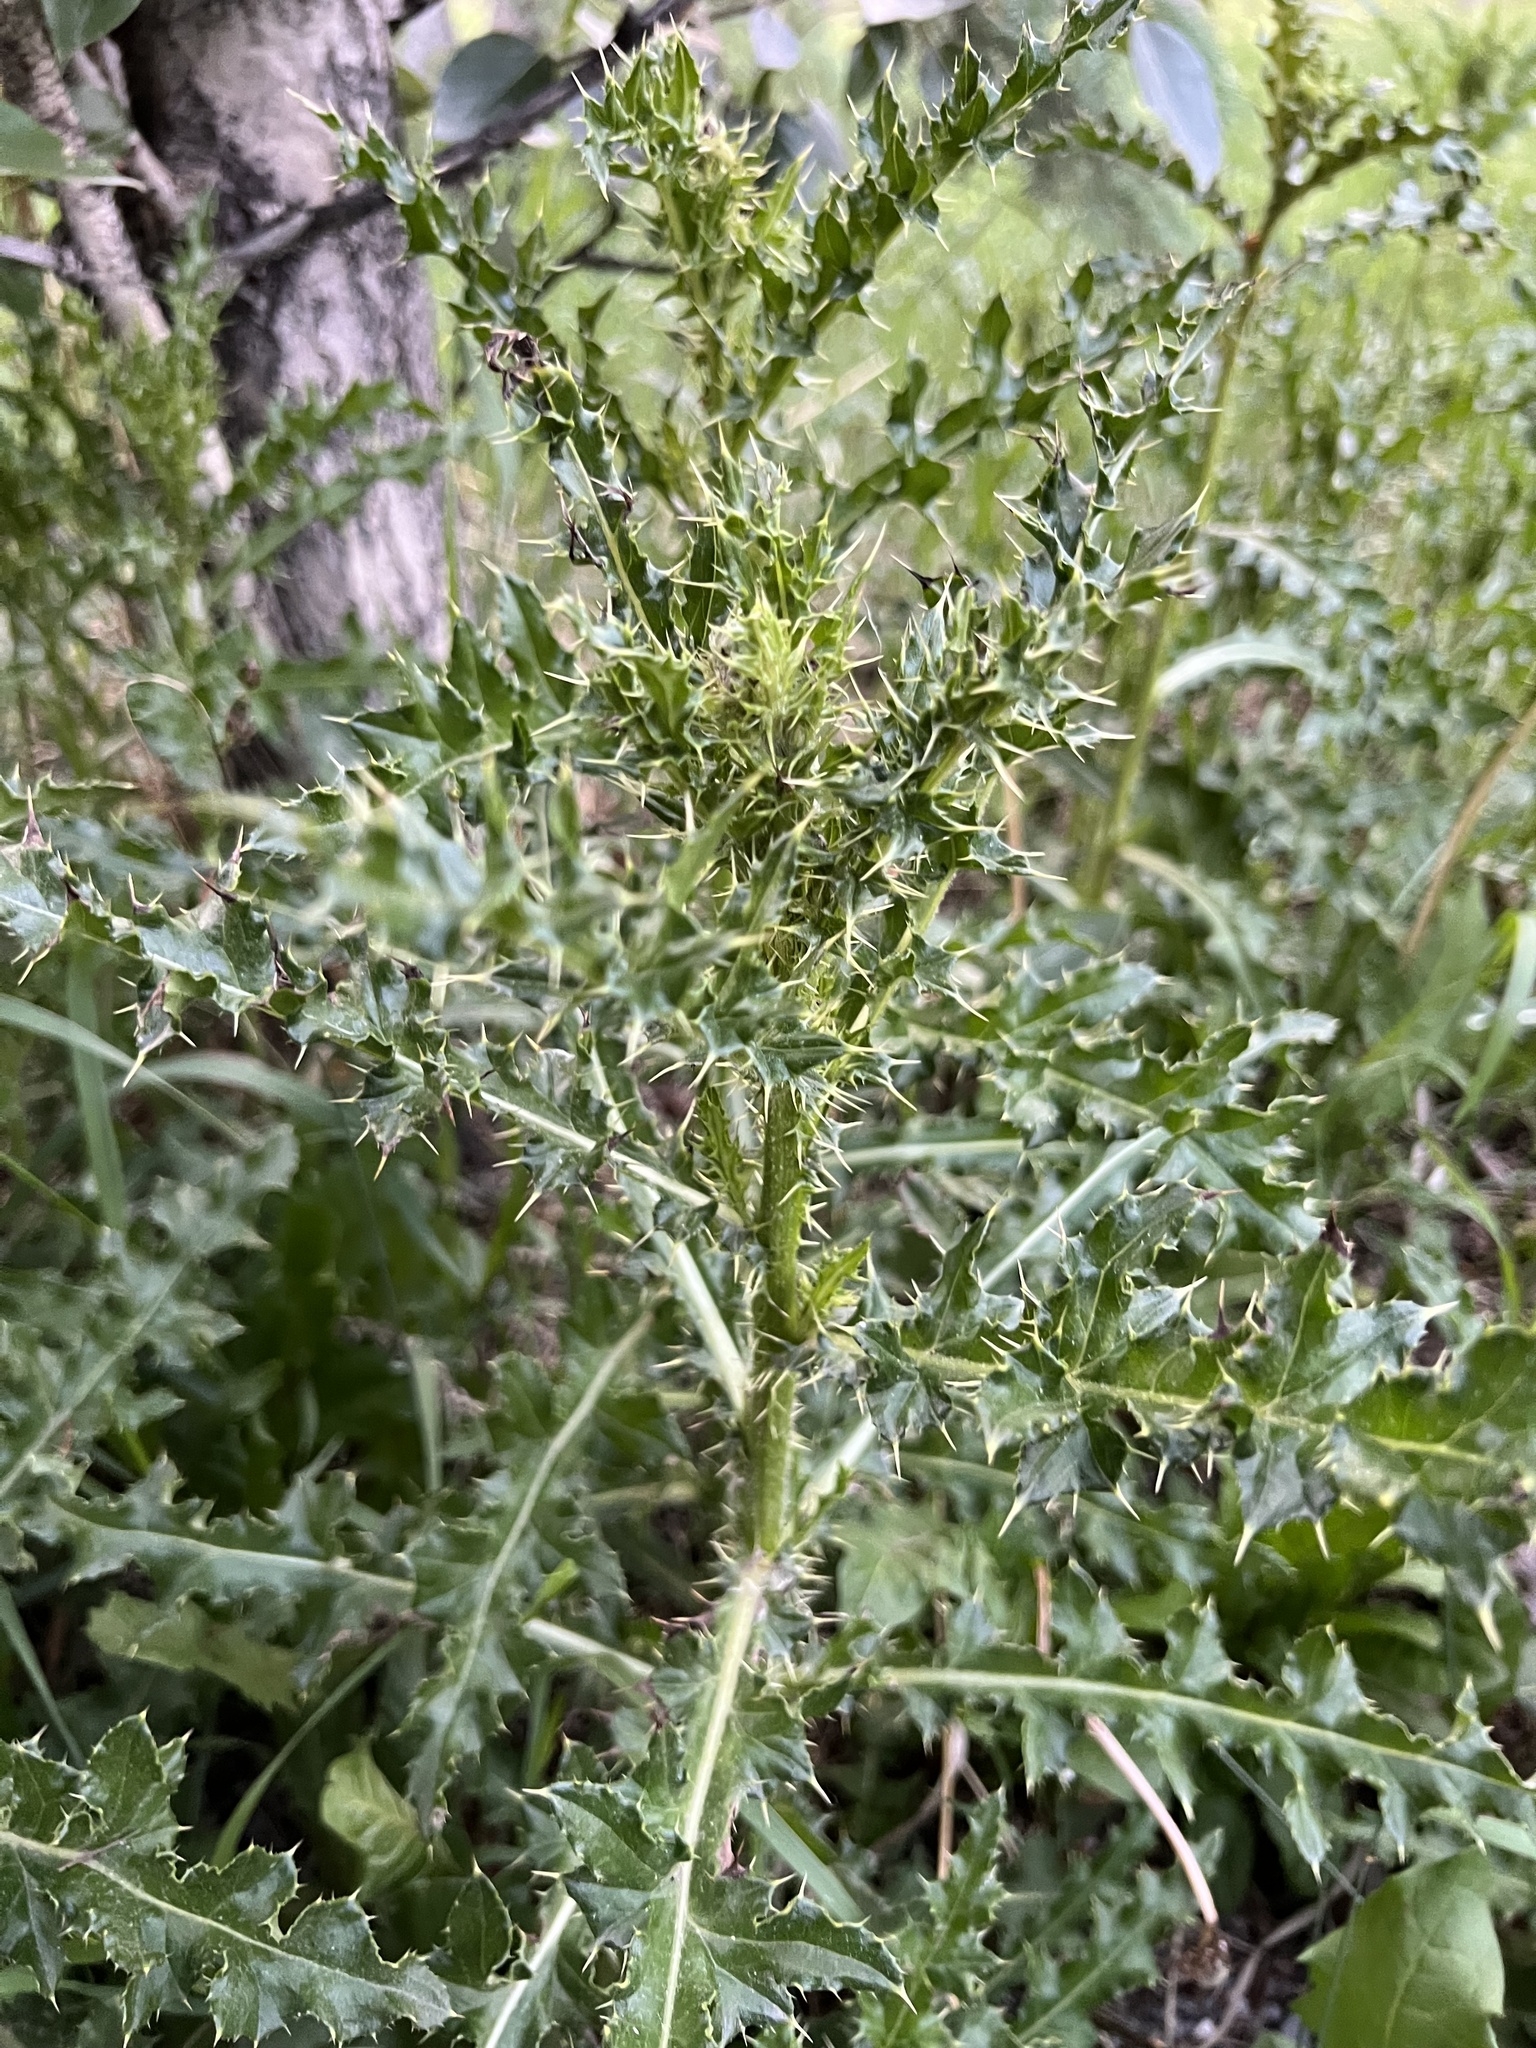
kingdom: Plantae
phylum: Tracheophyta
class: Magnoliopsida
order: Asterales
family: Asteraceae
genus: Cirsium
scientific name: Cirsium arvense
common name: Creeping thistle
